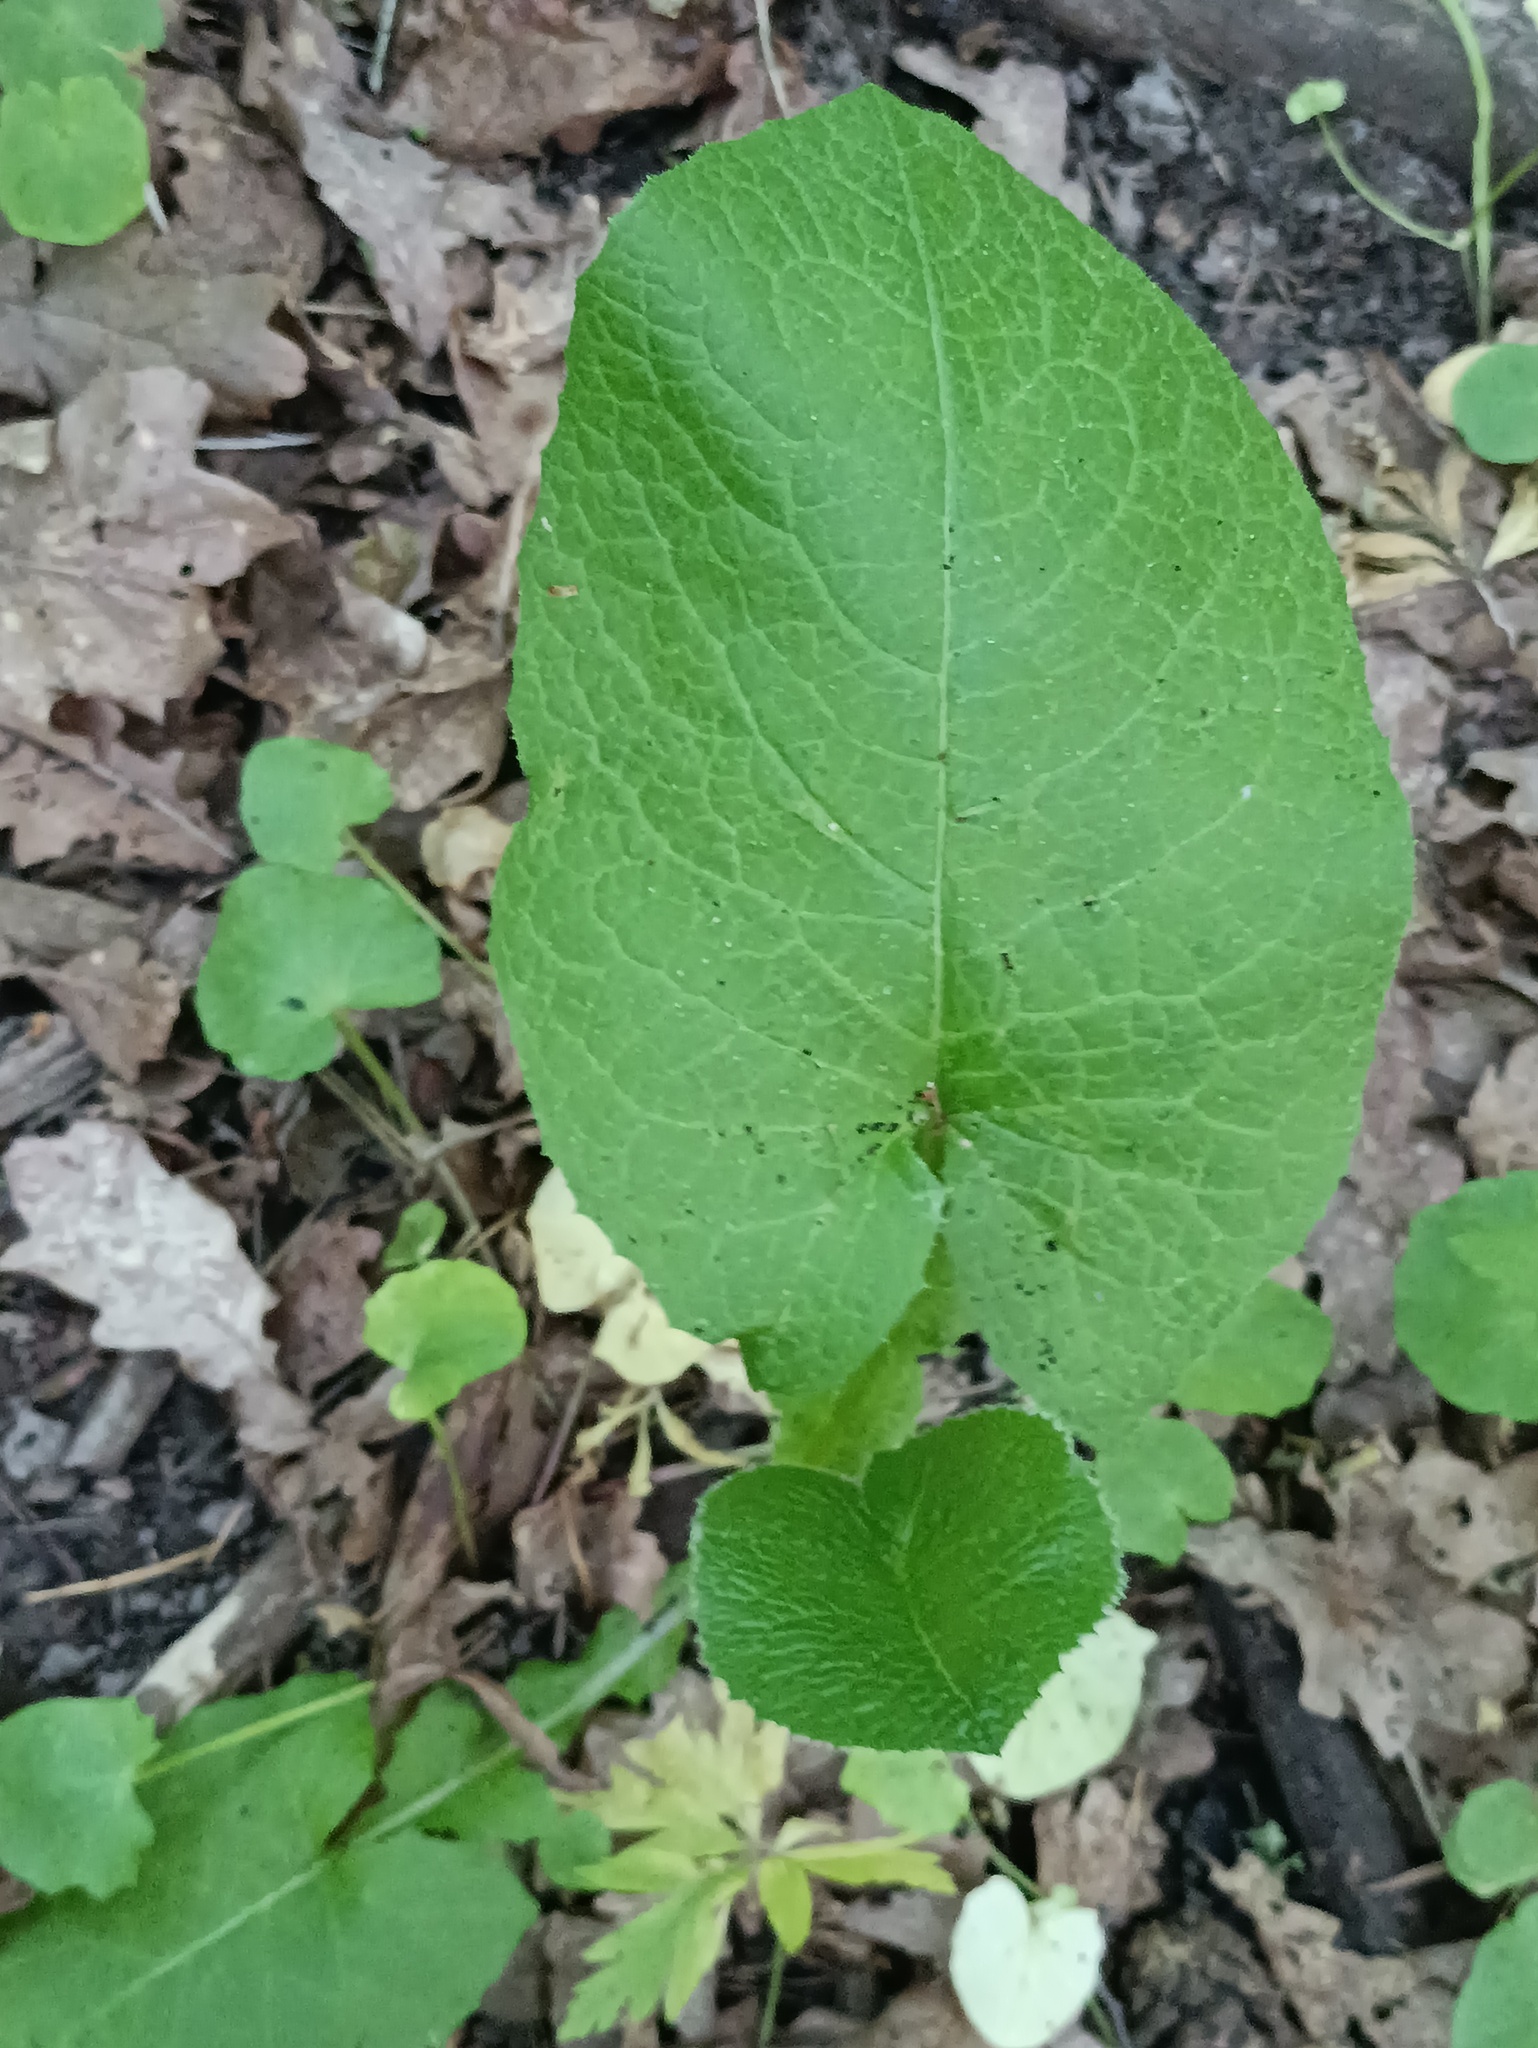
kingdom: Plantae
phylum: Tracheophyta
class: Magnoliopsida
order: Asterales
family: Asteraceae
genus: Lactuca
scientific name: Lactuca macrophylla
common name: Common blue-sow-thistle
